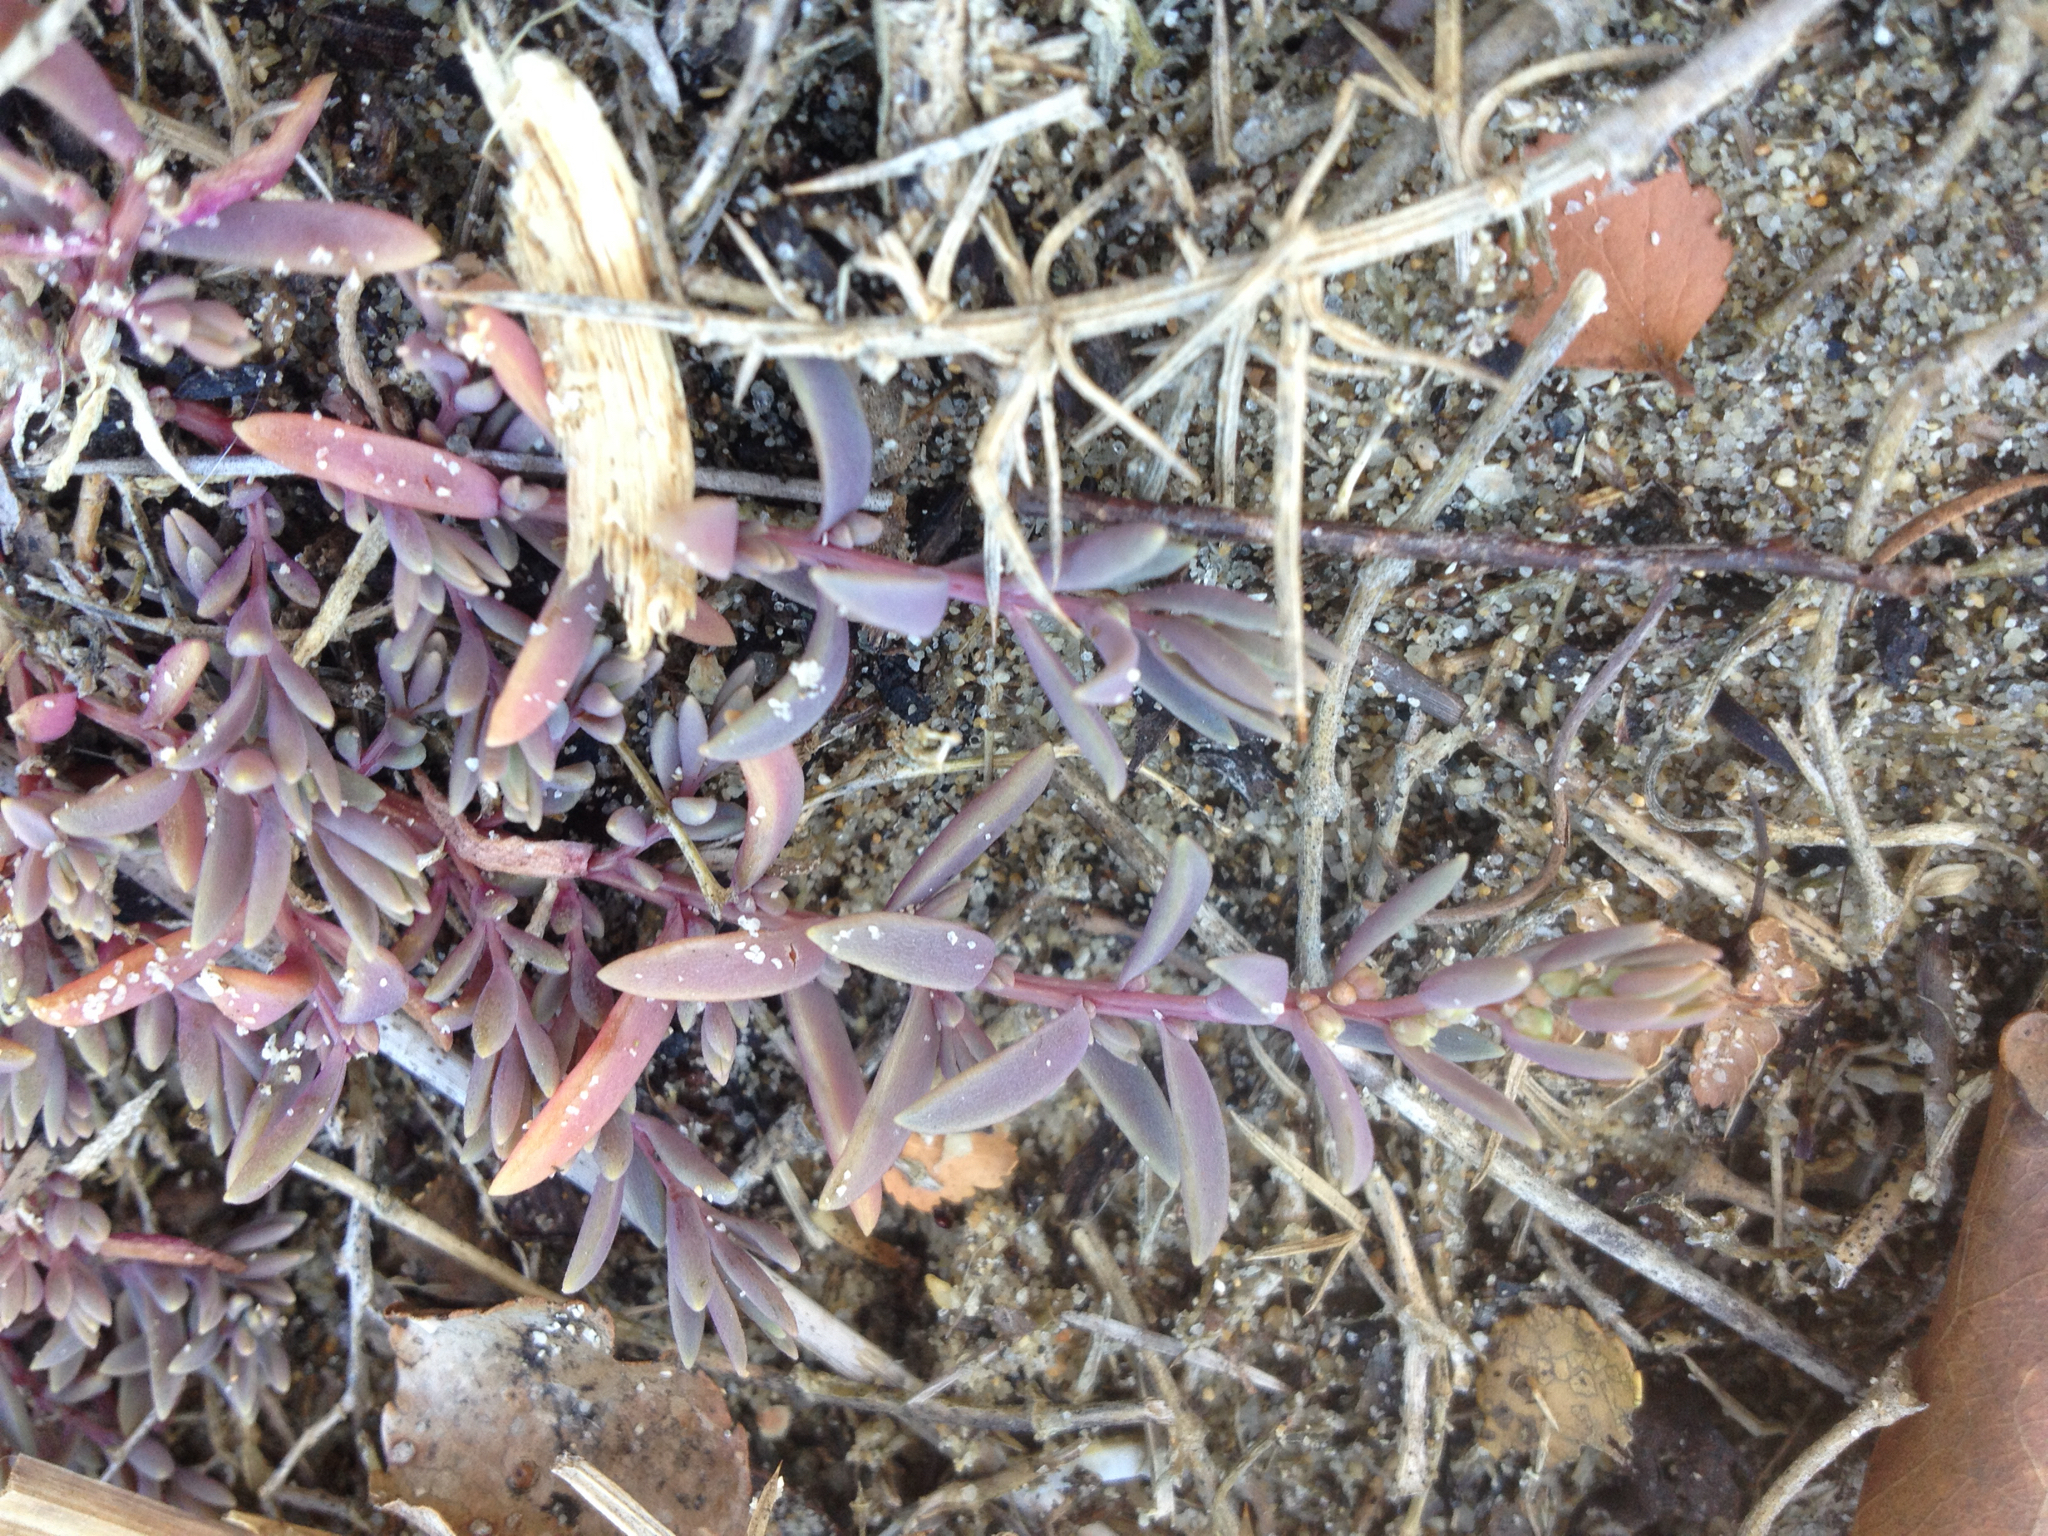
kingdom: Plantae
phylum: Tracheophyta
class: Magnoliopsida
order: Caryophyllales
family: Amaranthaceae
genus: Suaeda
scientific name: Suaeda novae-zelandiae
